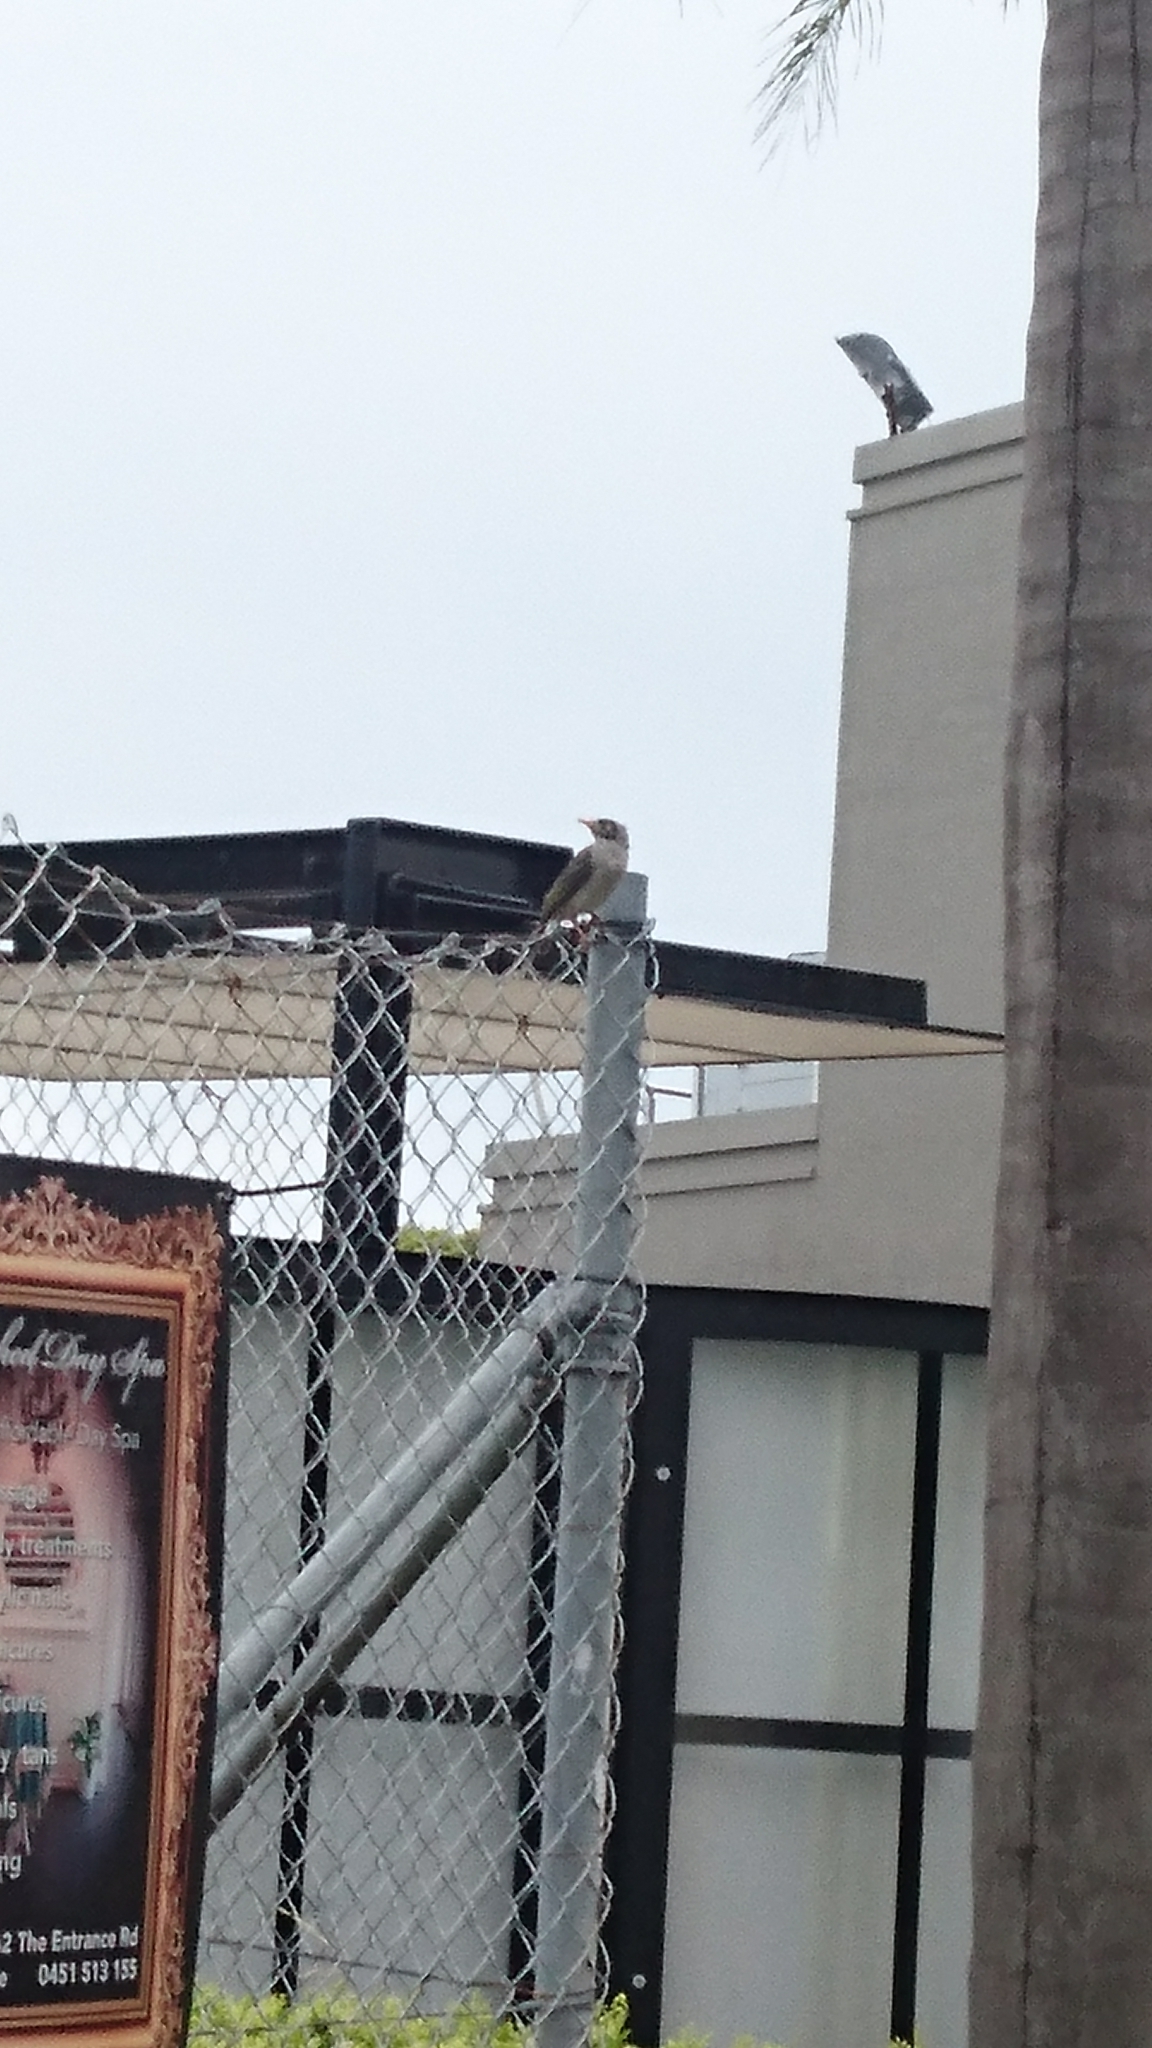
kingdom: Animalia
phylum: Chordata
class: Aves
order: Passeriformes
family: Meliphagidae
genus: Manorina
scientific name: Manorina melanocephala
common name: Noisy miner
